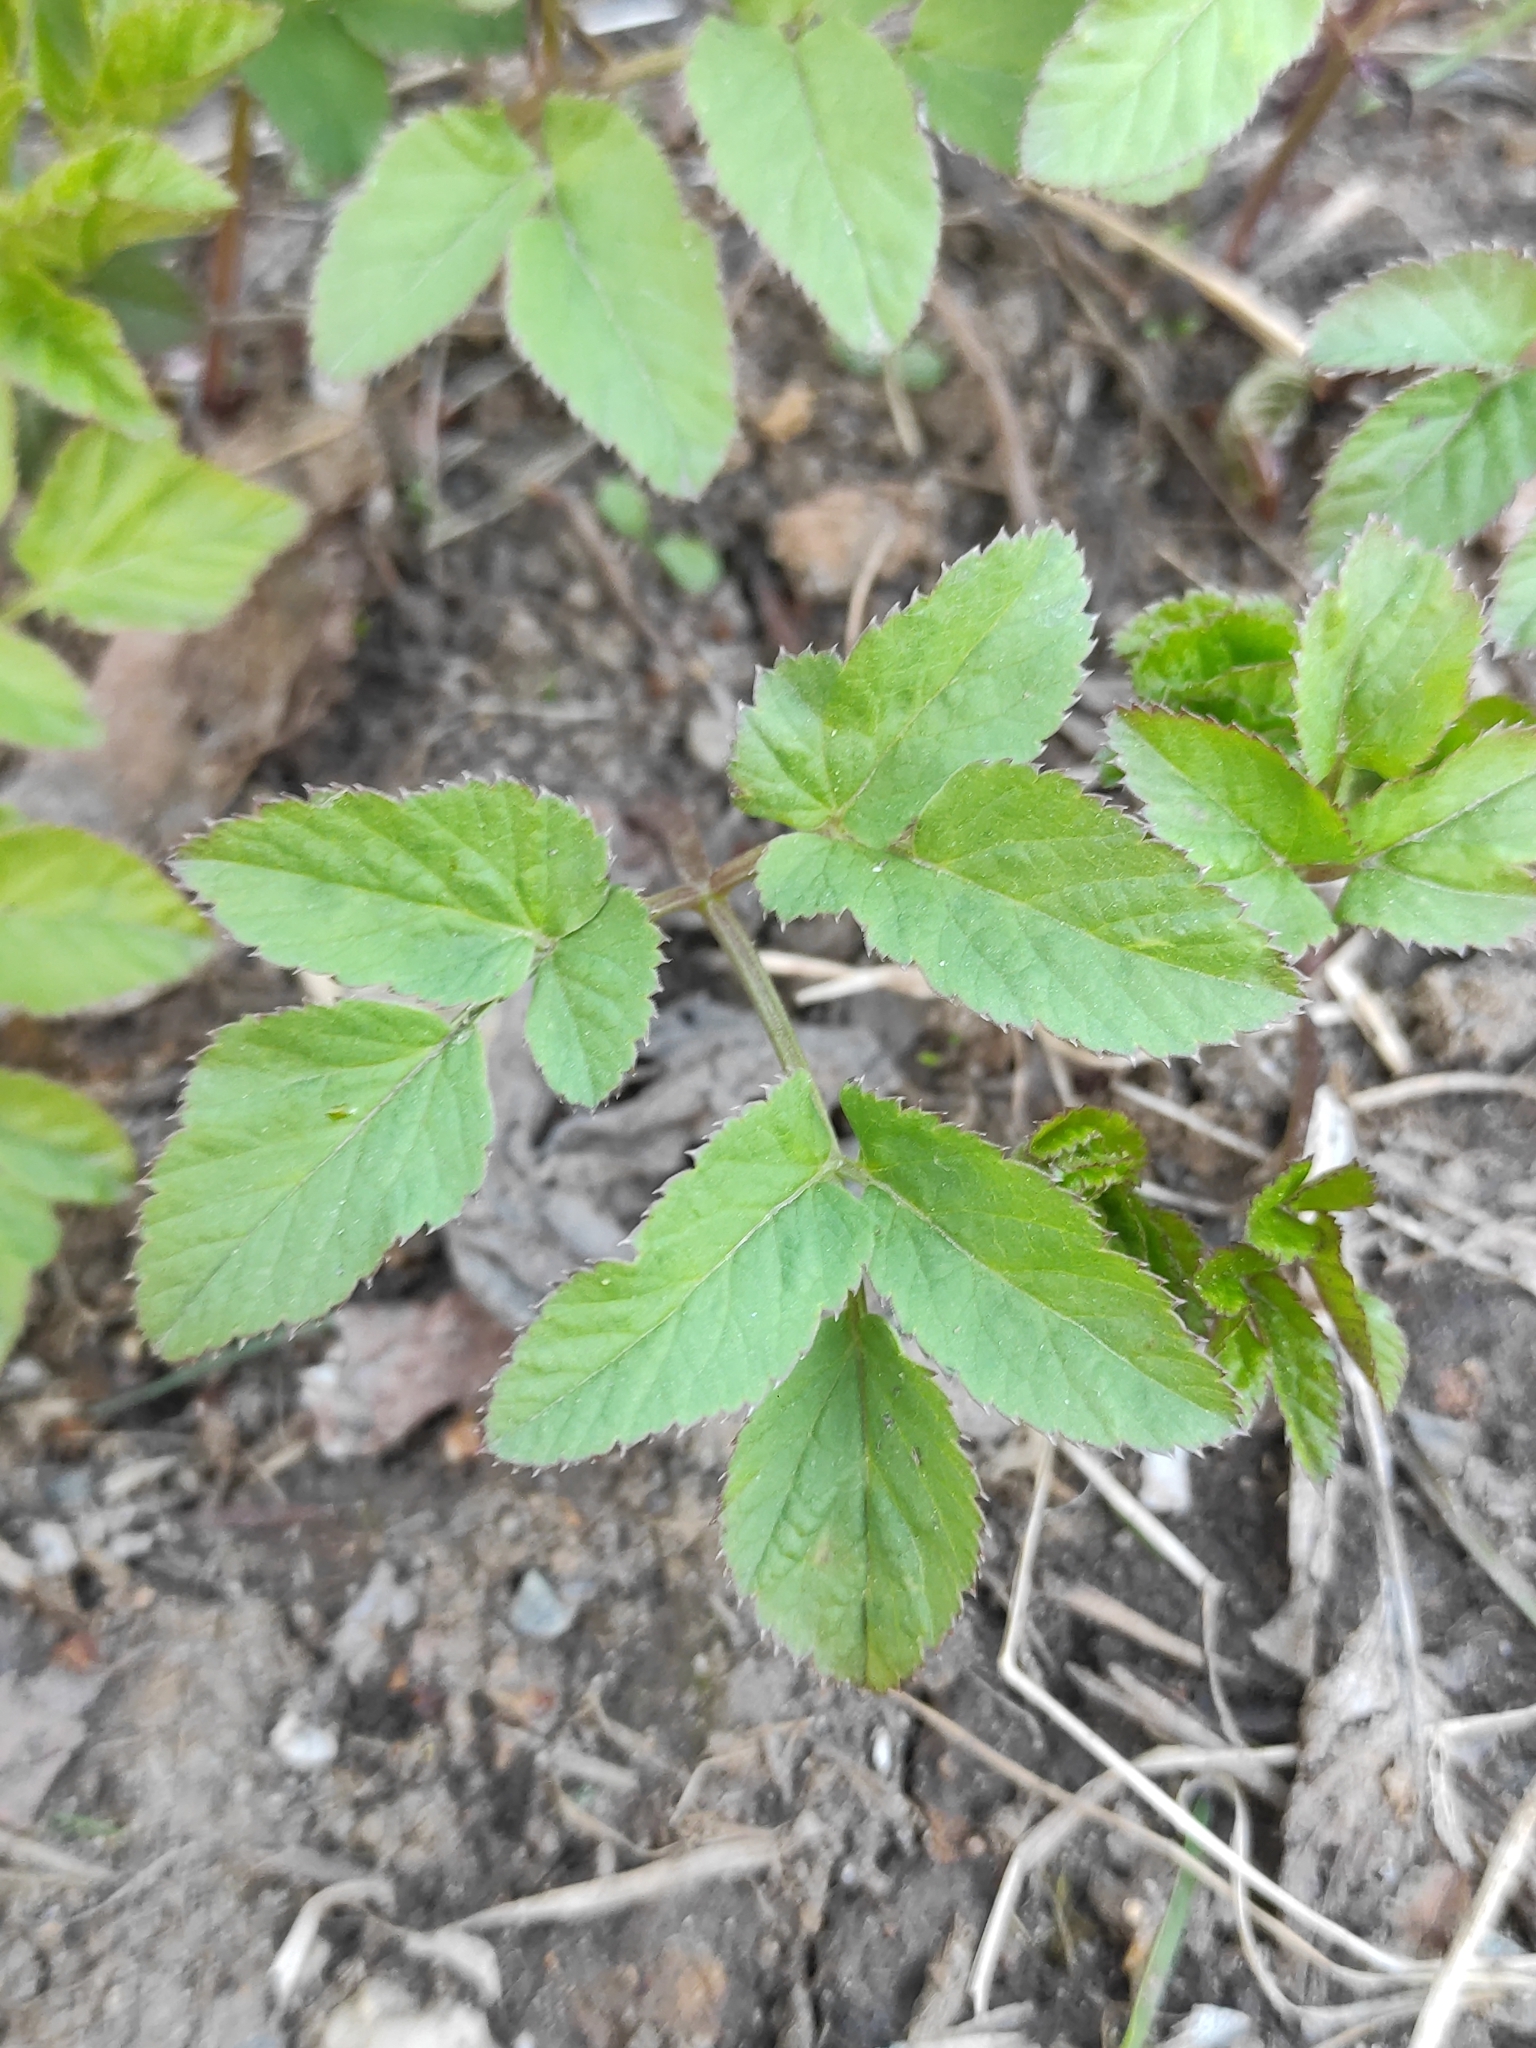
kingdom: Plantae
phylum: Tracheophyta
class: Magnoliopsida
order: Apiales
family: Apiaceae
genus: Aegopodium
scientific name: Aegopodium podagraria
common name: Ground-elder
